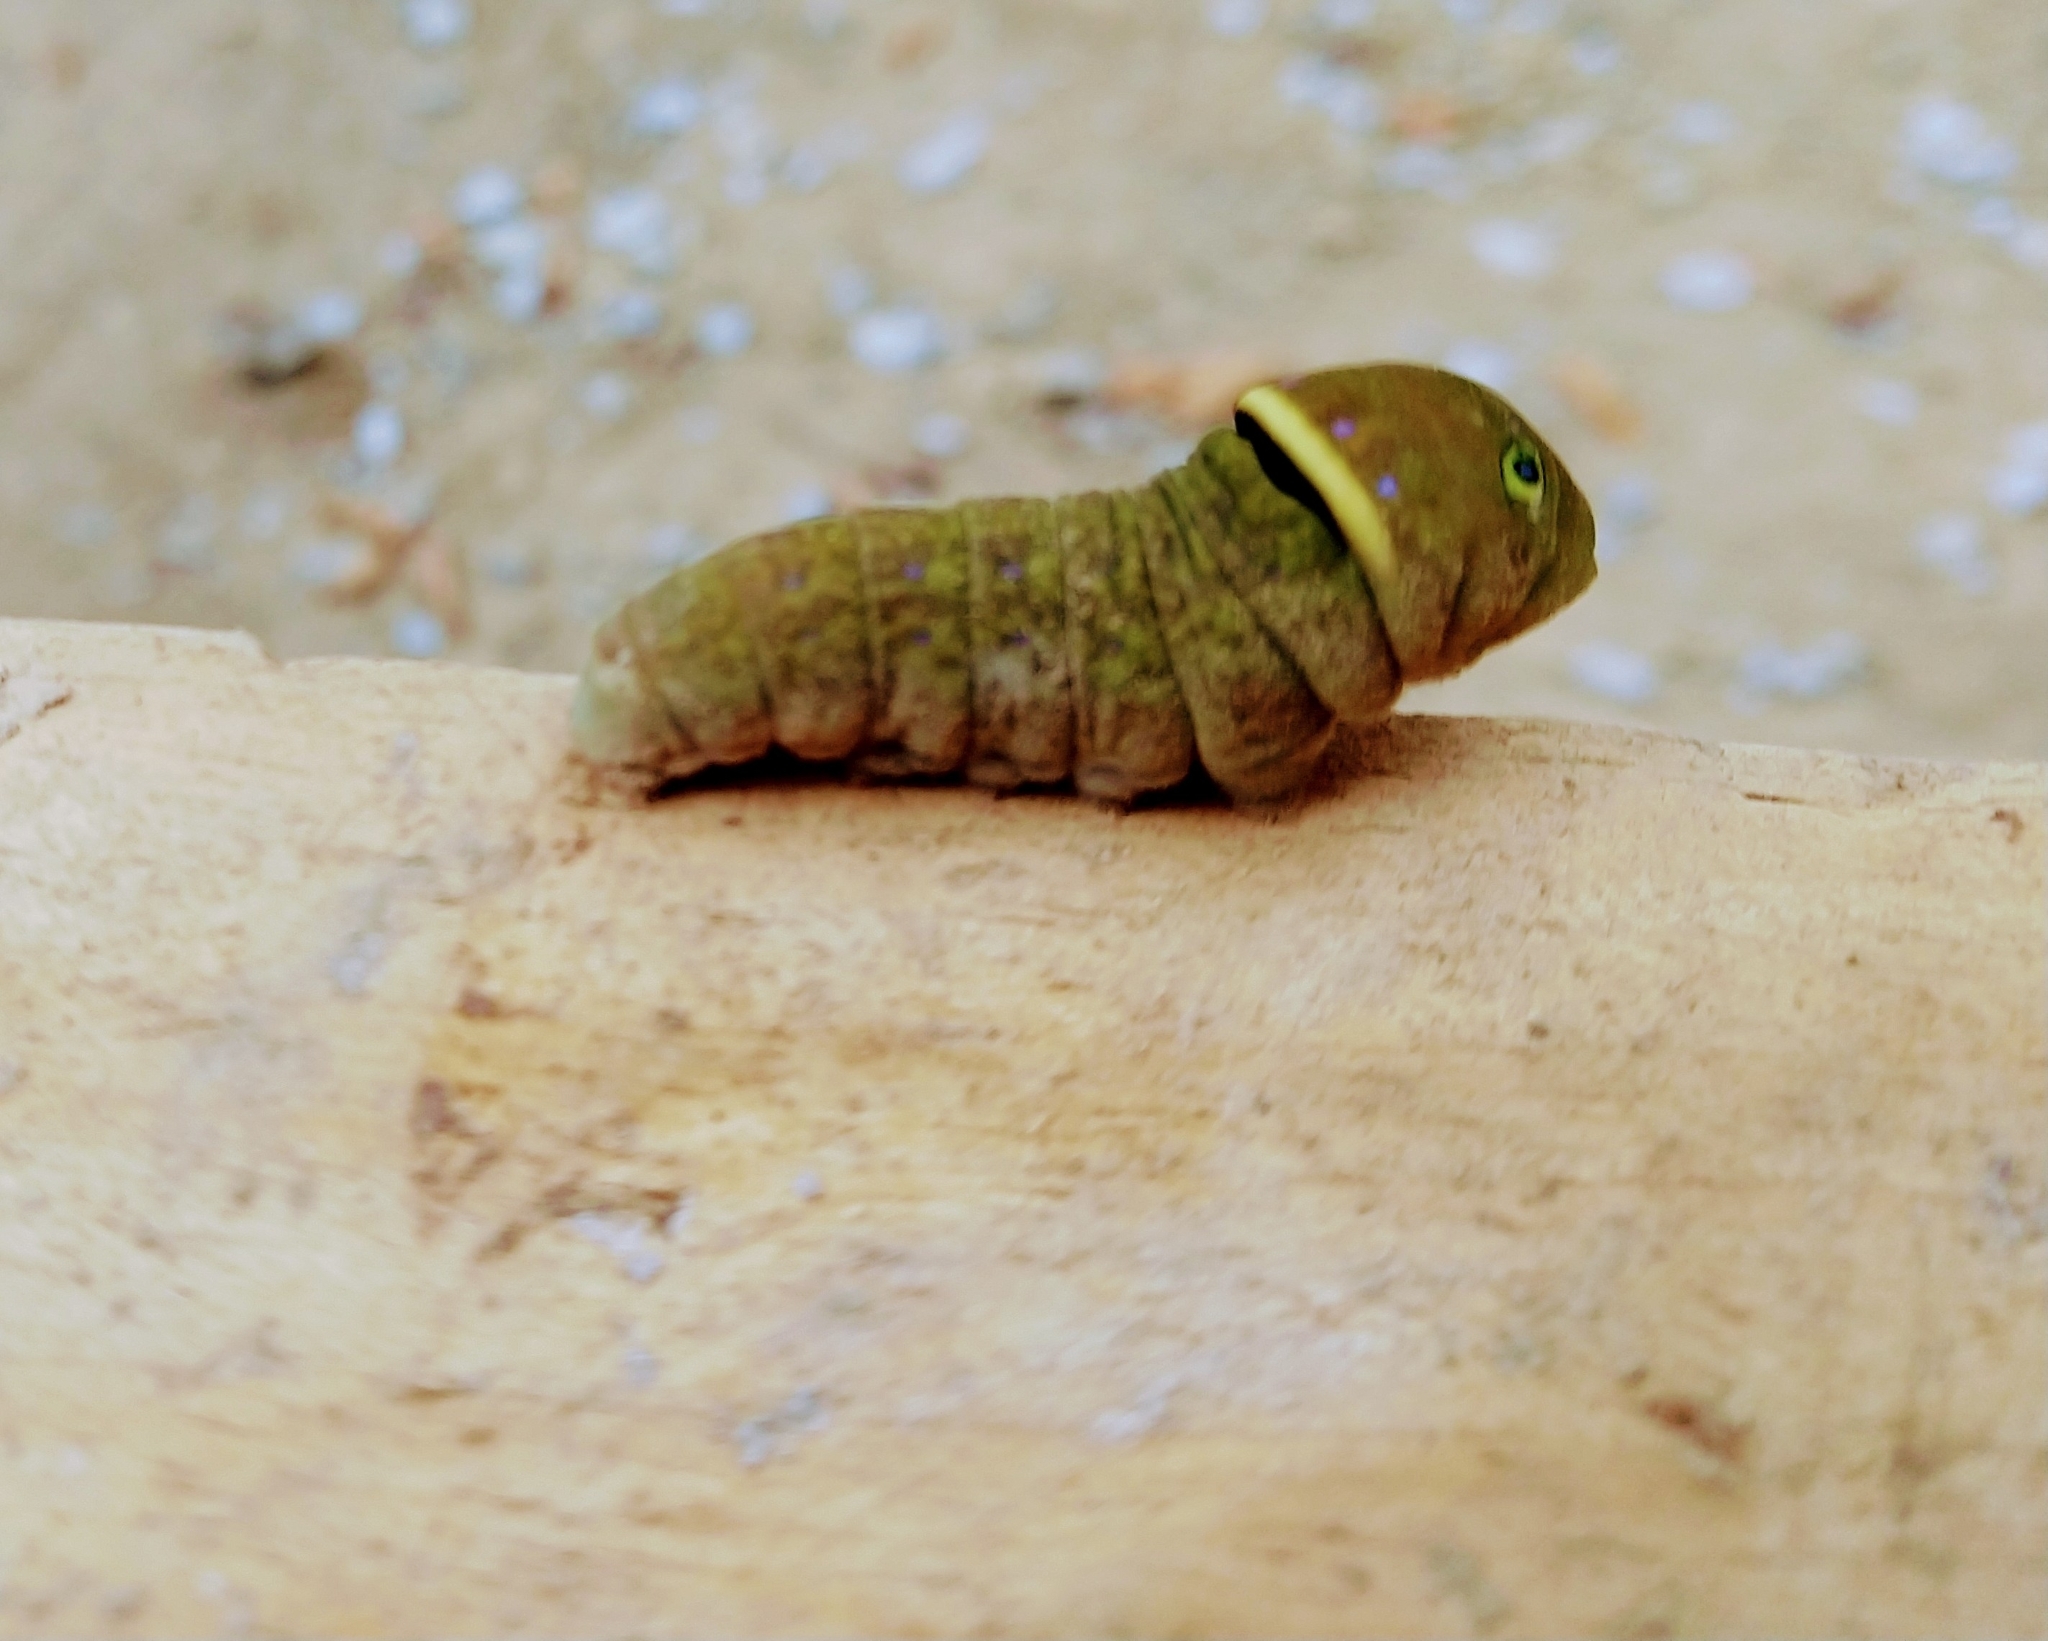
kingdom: Animalia
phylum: Arthropoda
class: Insecta
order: Lepidoptera
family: Papilionidae
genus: Papilio
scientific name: Papilio glaucus
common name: Tiger swallowtail
